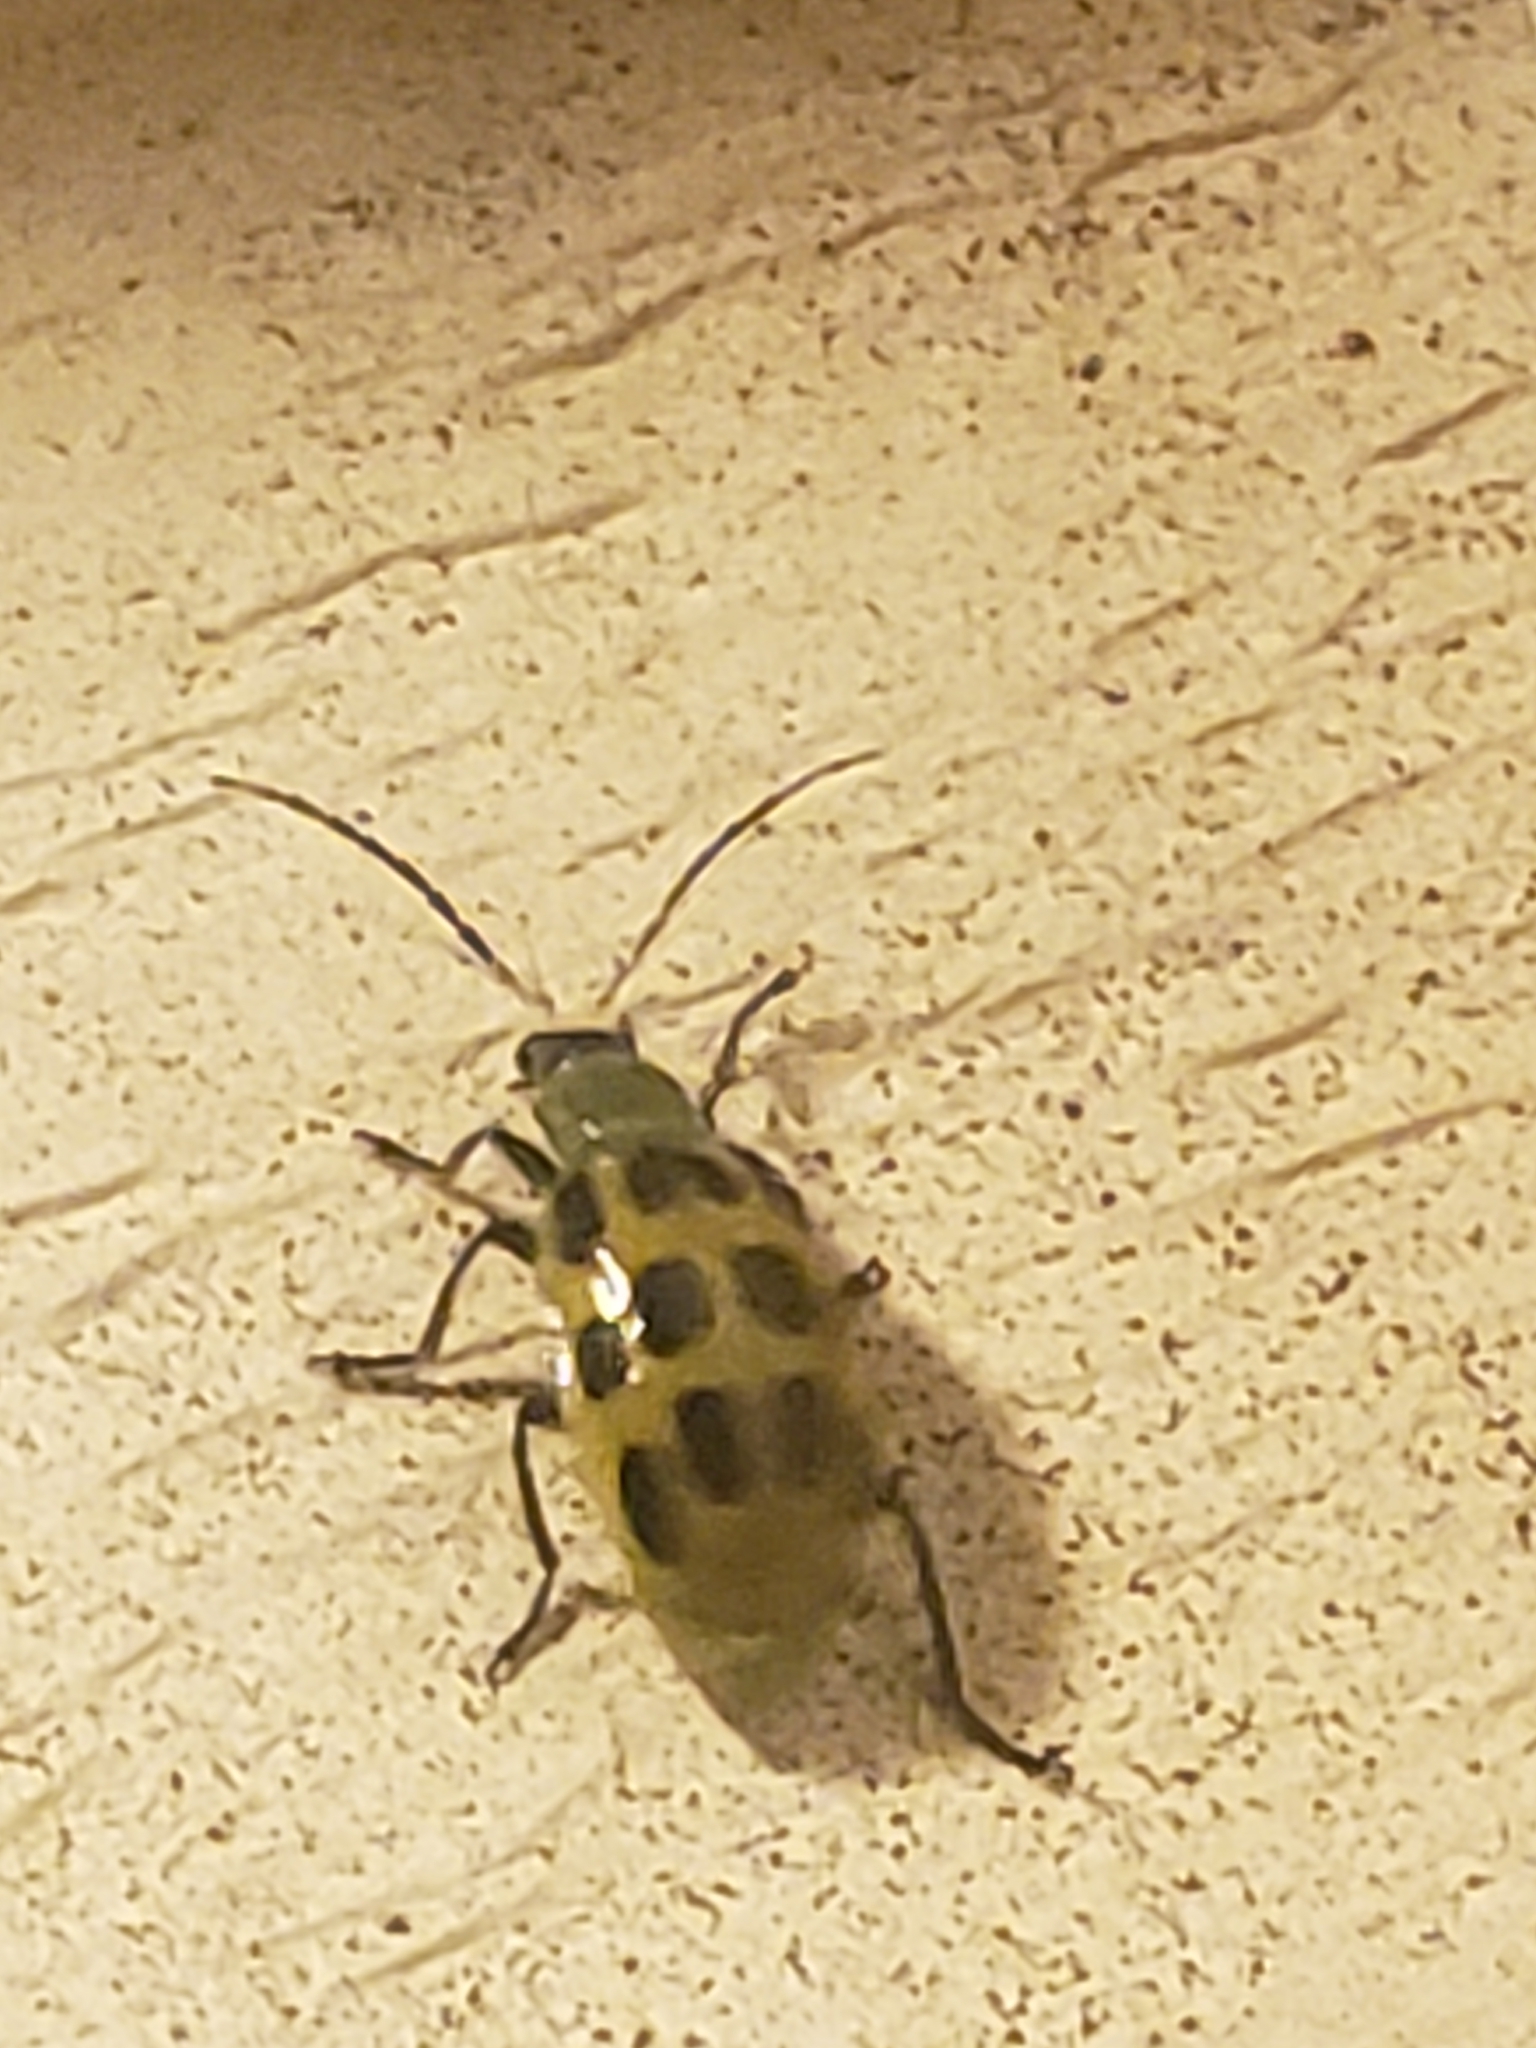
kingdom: Animalia
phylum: Arthropoda
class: Insecta
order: Coleoptera
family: Chrysomelidae
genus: Diabrotica
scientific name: Diabrotica undecimpunctata
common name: Spotted cucumber beetle
